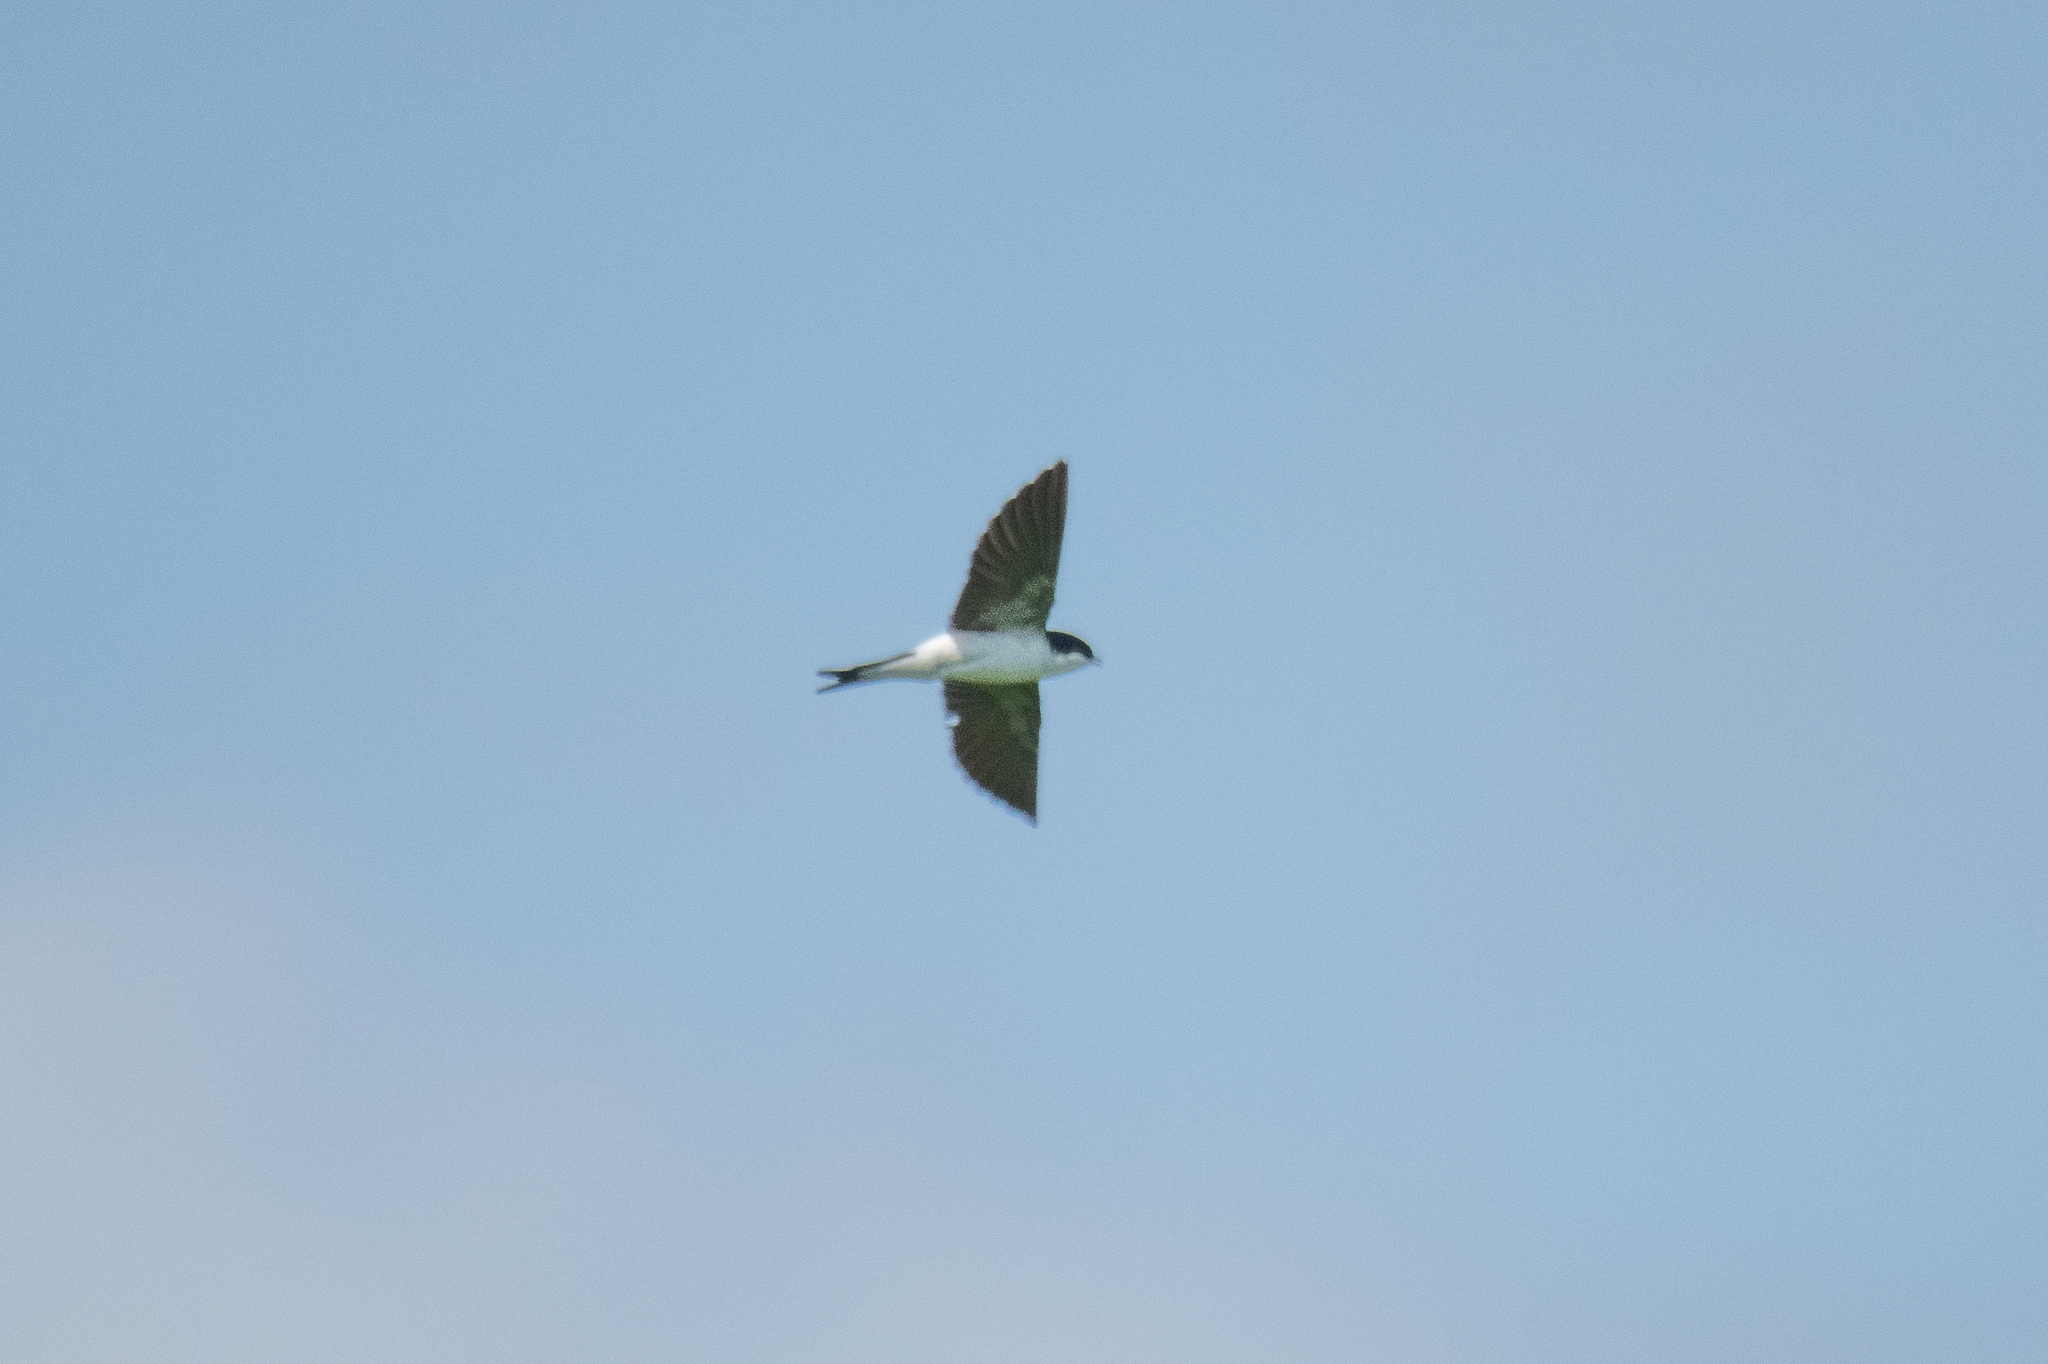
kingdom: Animalia
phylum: Chordata
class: Aves
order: Passeriformes
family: Hirundinidae
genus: Delichon
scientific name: Delichon urbicum
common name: Common house martin
